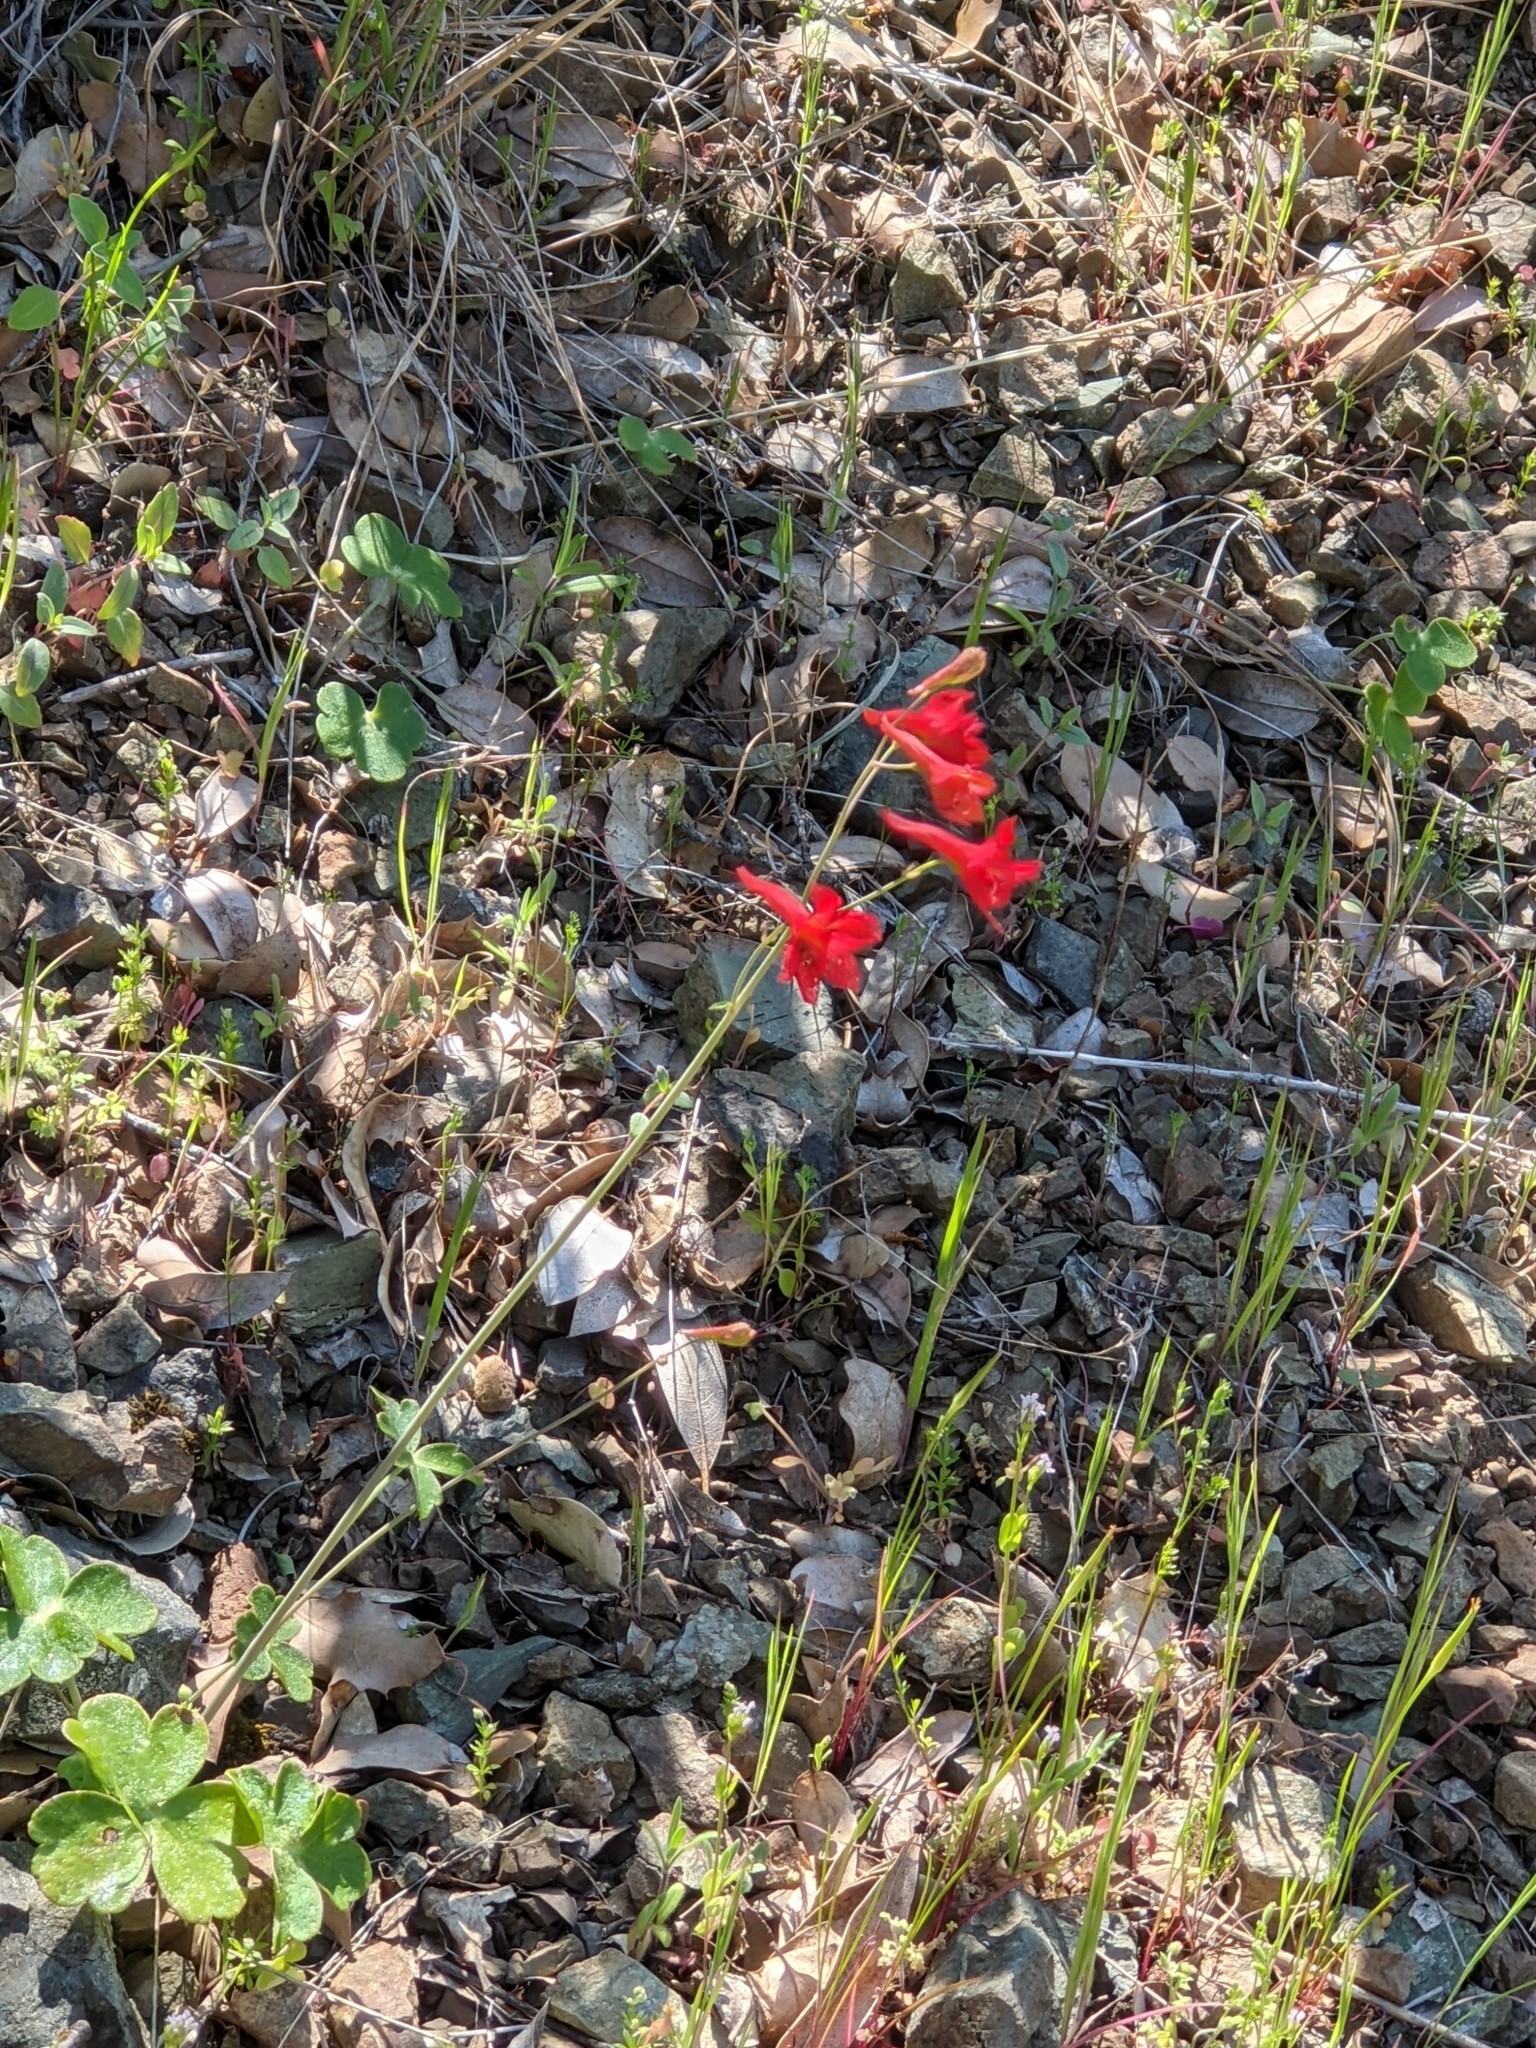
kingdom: Plantae
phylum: Tracheophyta
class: Magnoliopsida
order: Ranunculales
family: Ranunculaceae
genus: Delphinium
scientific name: Delphinium nudicaule
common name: Red larkspur
